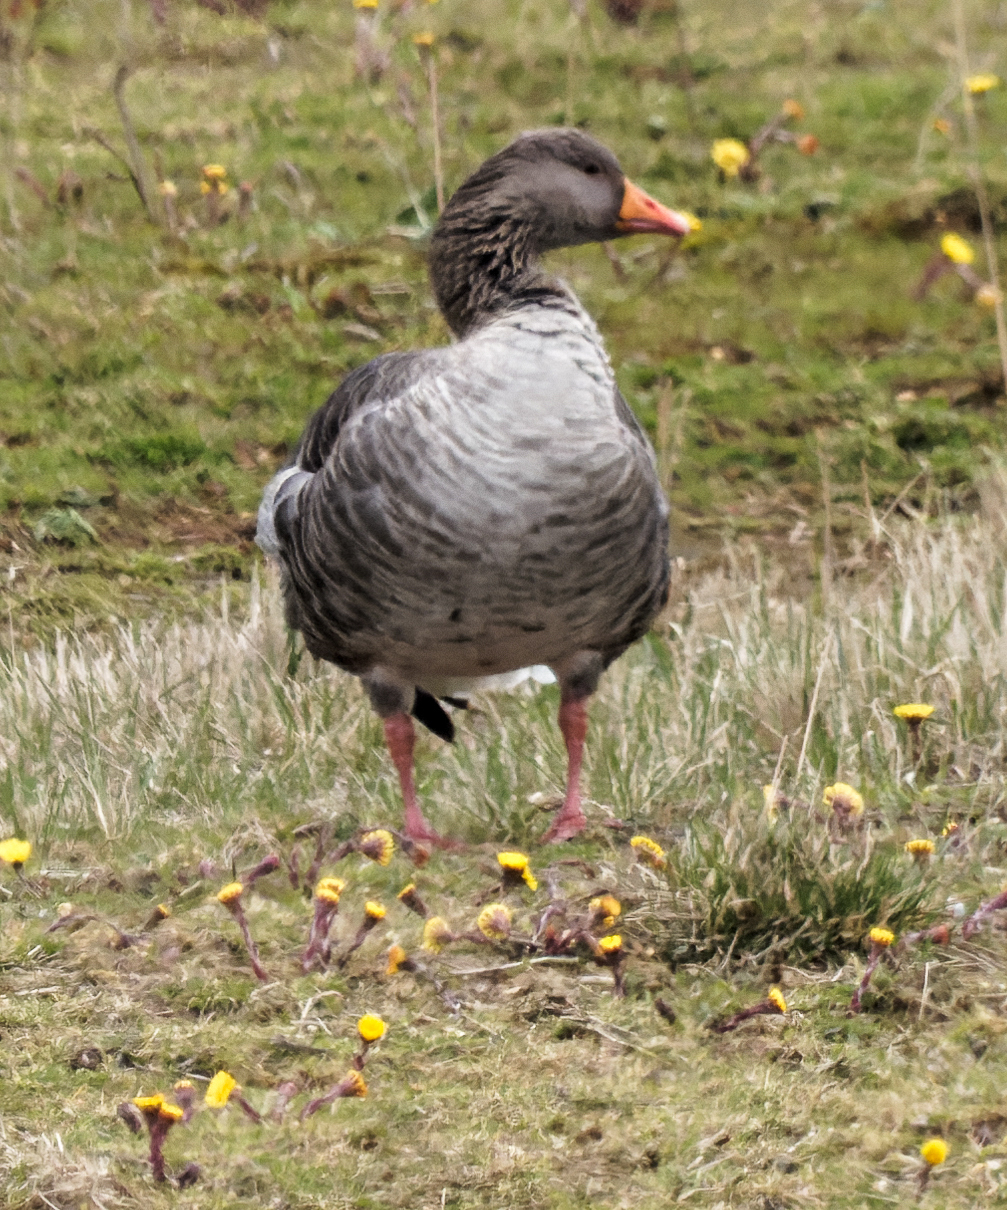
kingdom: Animalia
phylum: Chordata
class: Aves
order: Anseriformes
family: Anatidae
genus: Anser
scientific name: Anser anser
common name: Greylag goose
